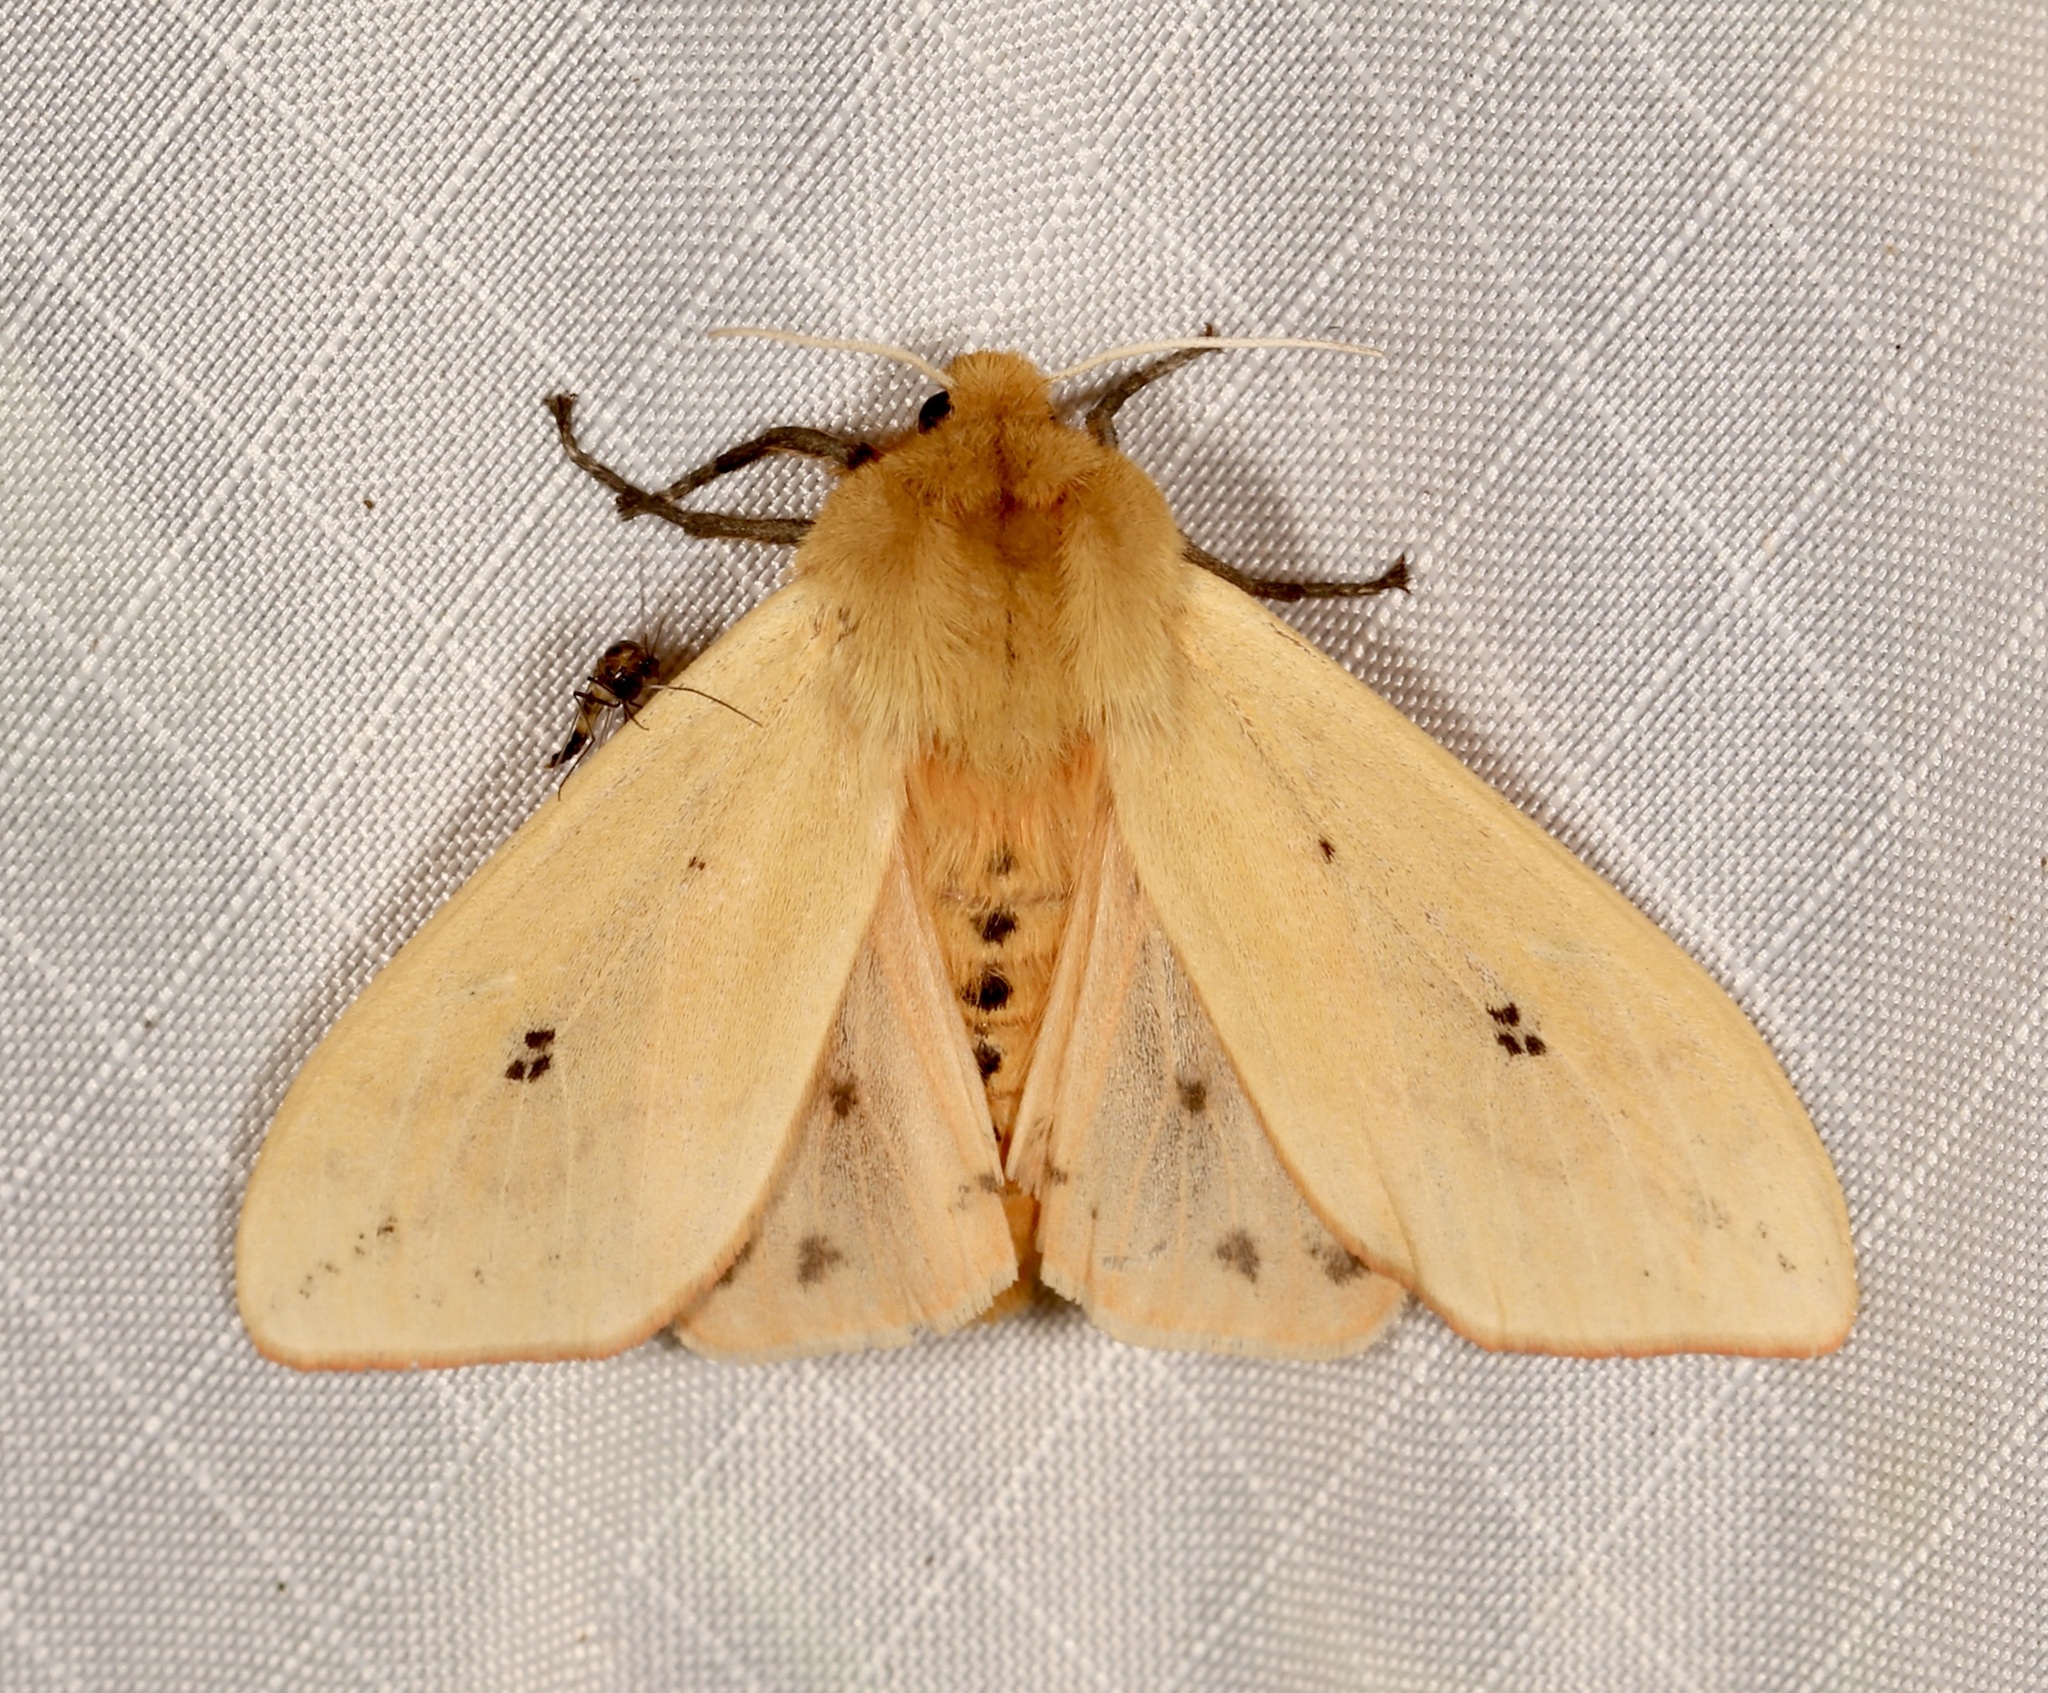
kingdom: Animalia
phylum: Arthropoda
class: Insecta
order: Lepidoptera
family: Erebidae
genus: Pyrrharctia
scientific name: Pyrrharctia isabella
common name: Isabella tiger moth
